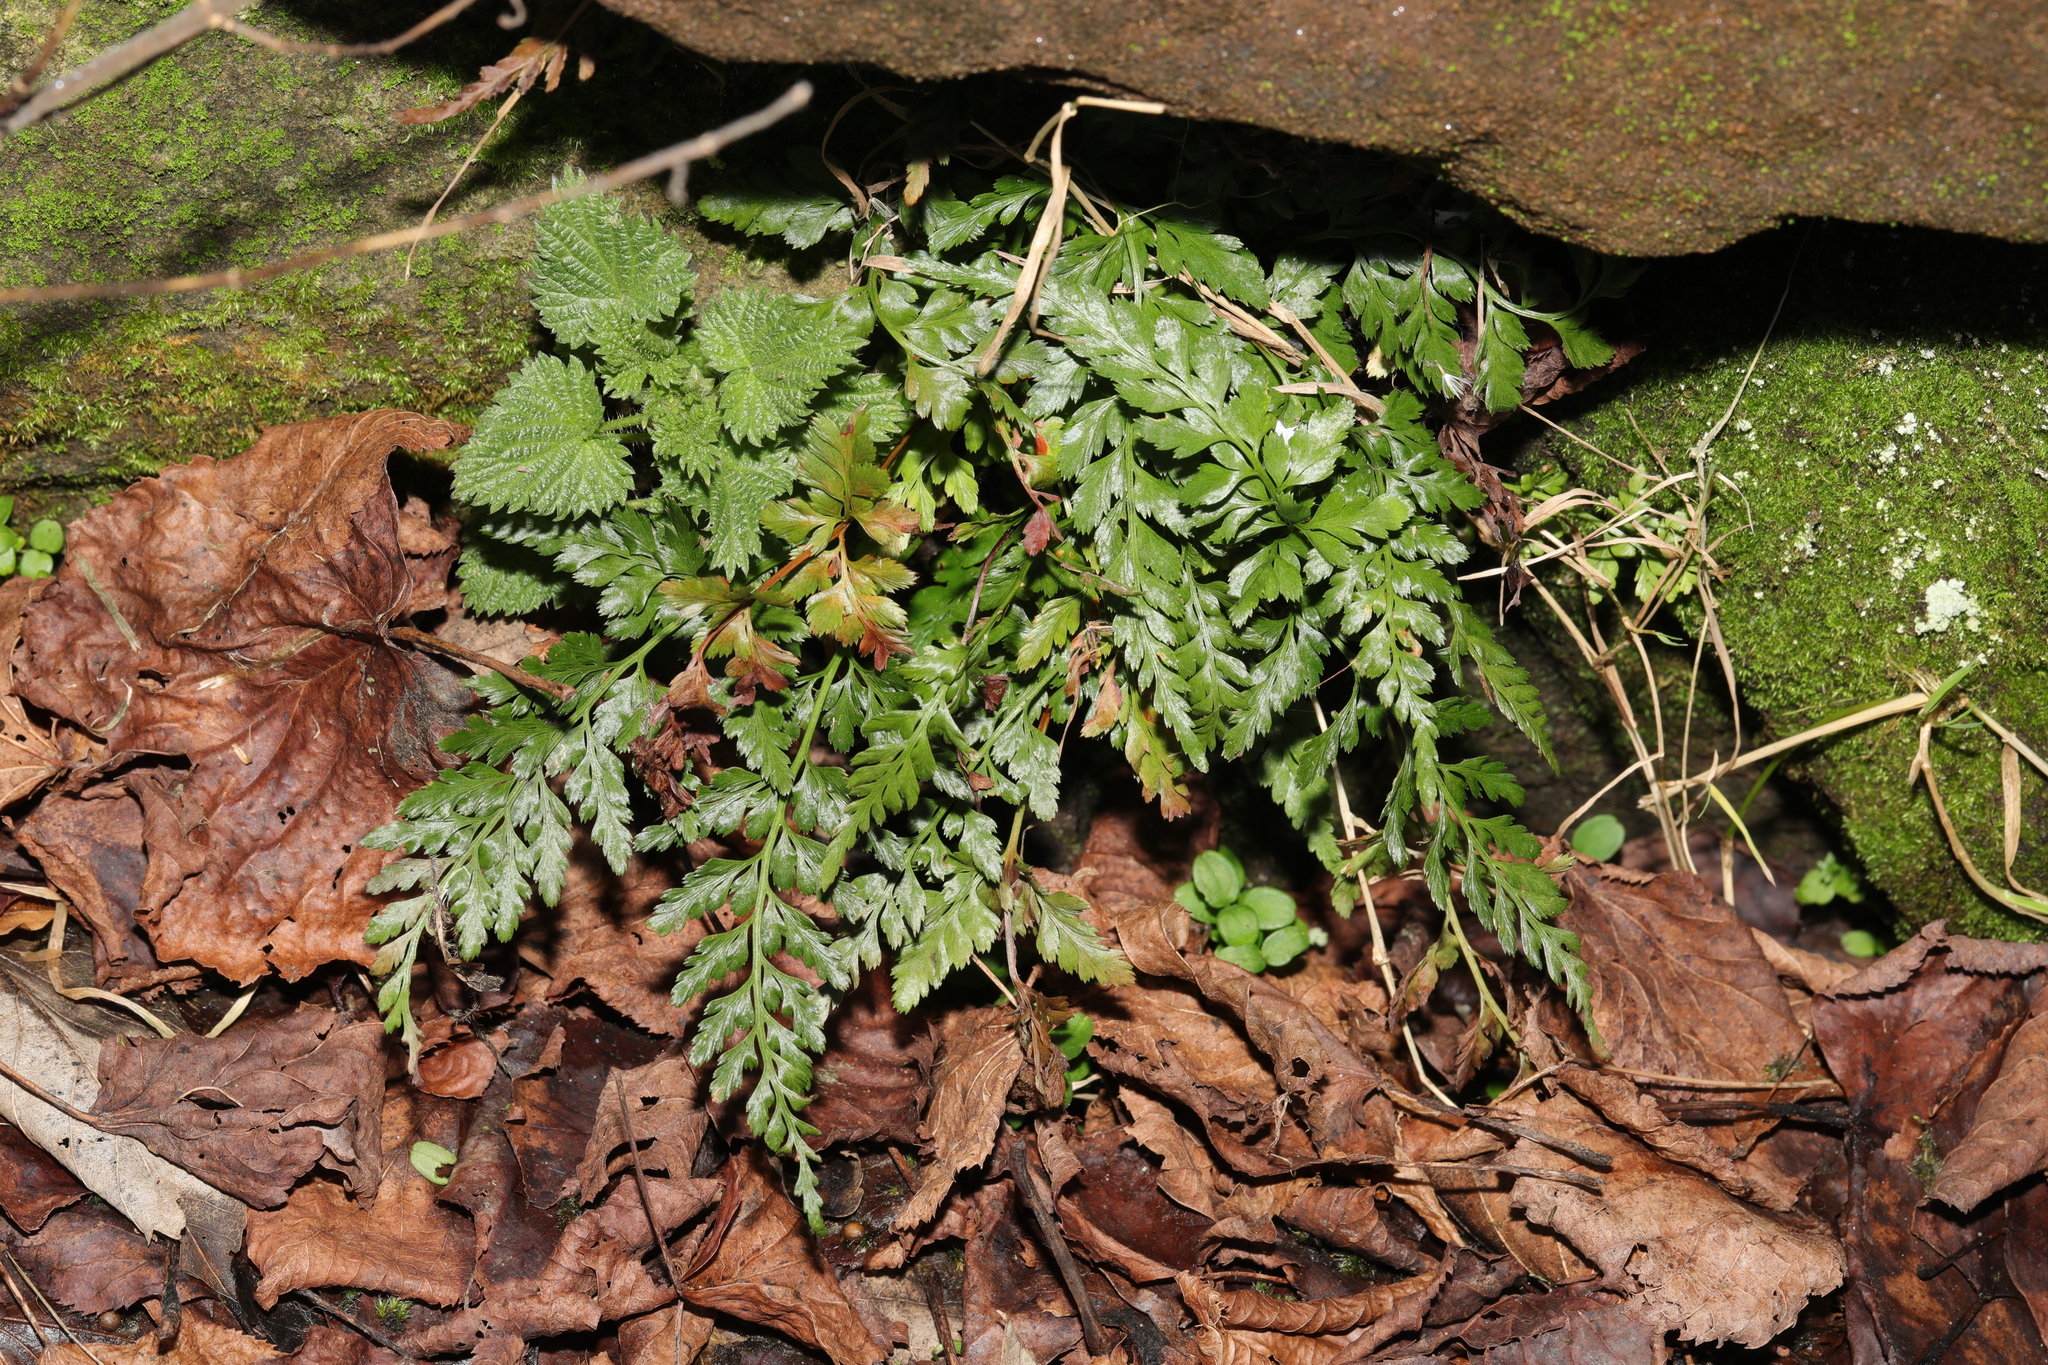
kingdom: Plantae
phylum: Tracheophyta
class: Polypodiopsida
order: Polypodiales
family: Aspleniaceae
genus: Asplenium
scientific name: Asplenium adiantum-nigrum
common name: Black spleenwort
